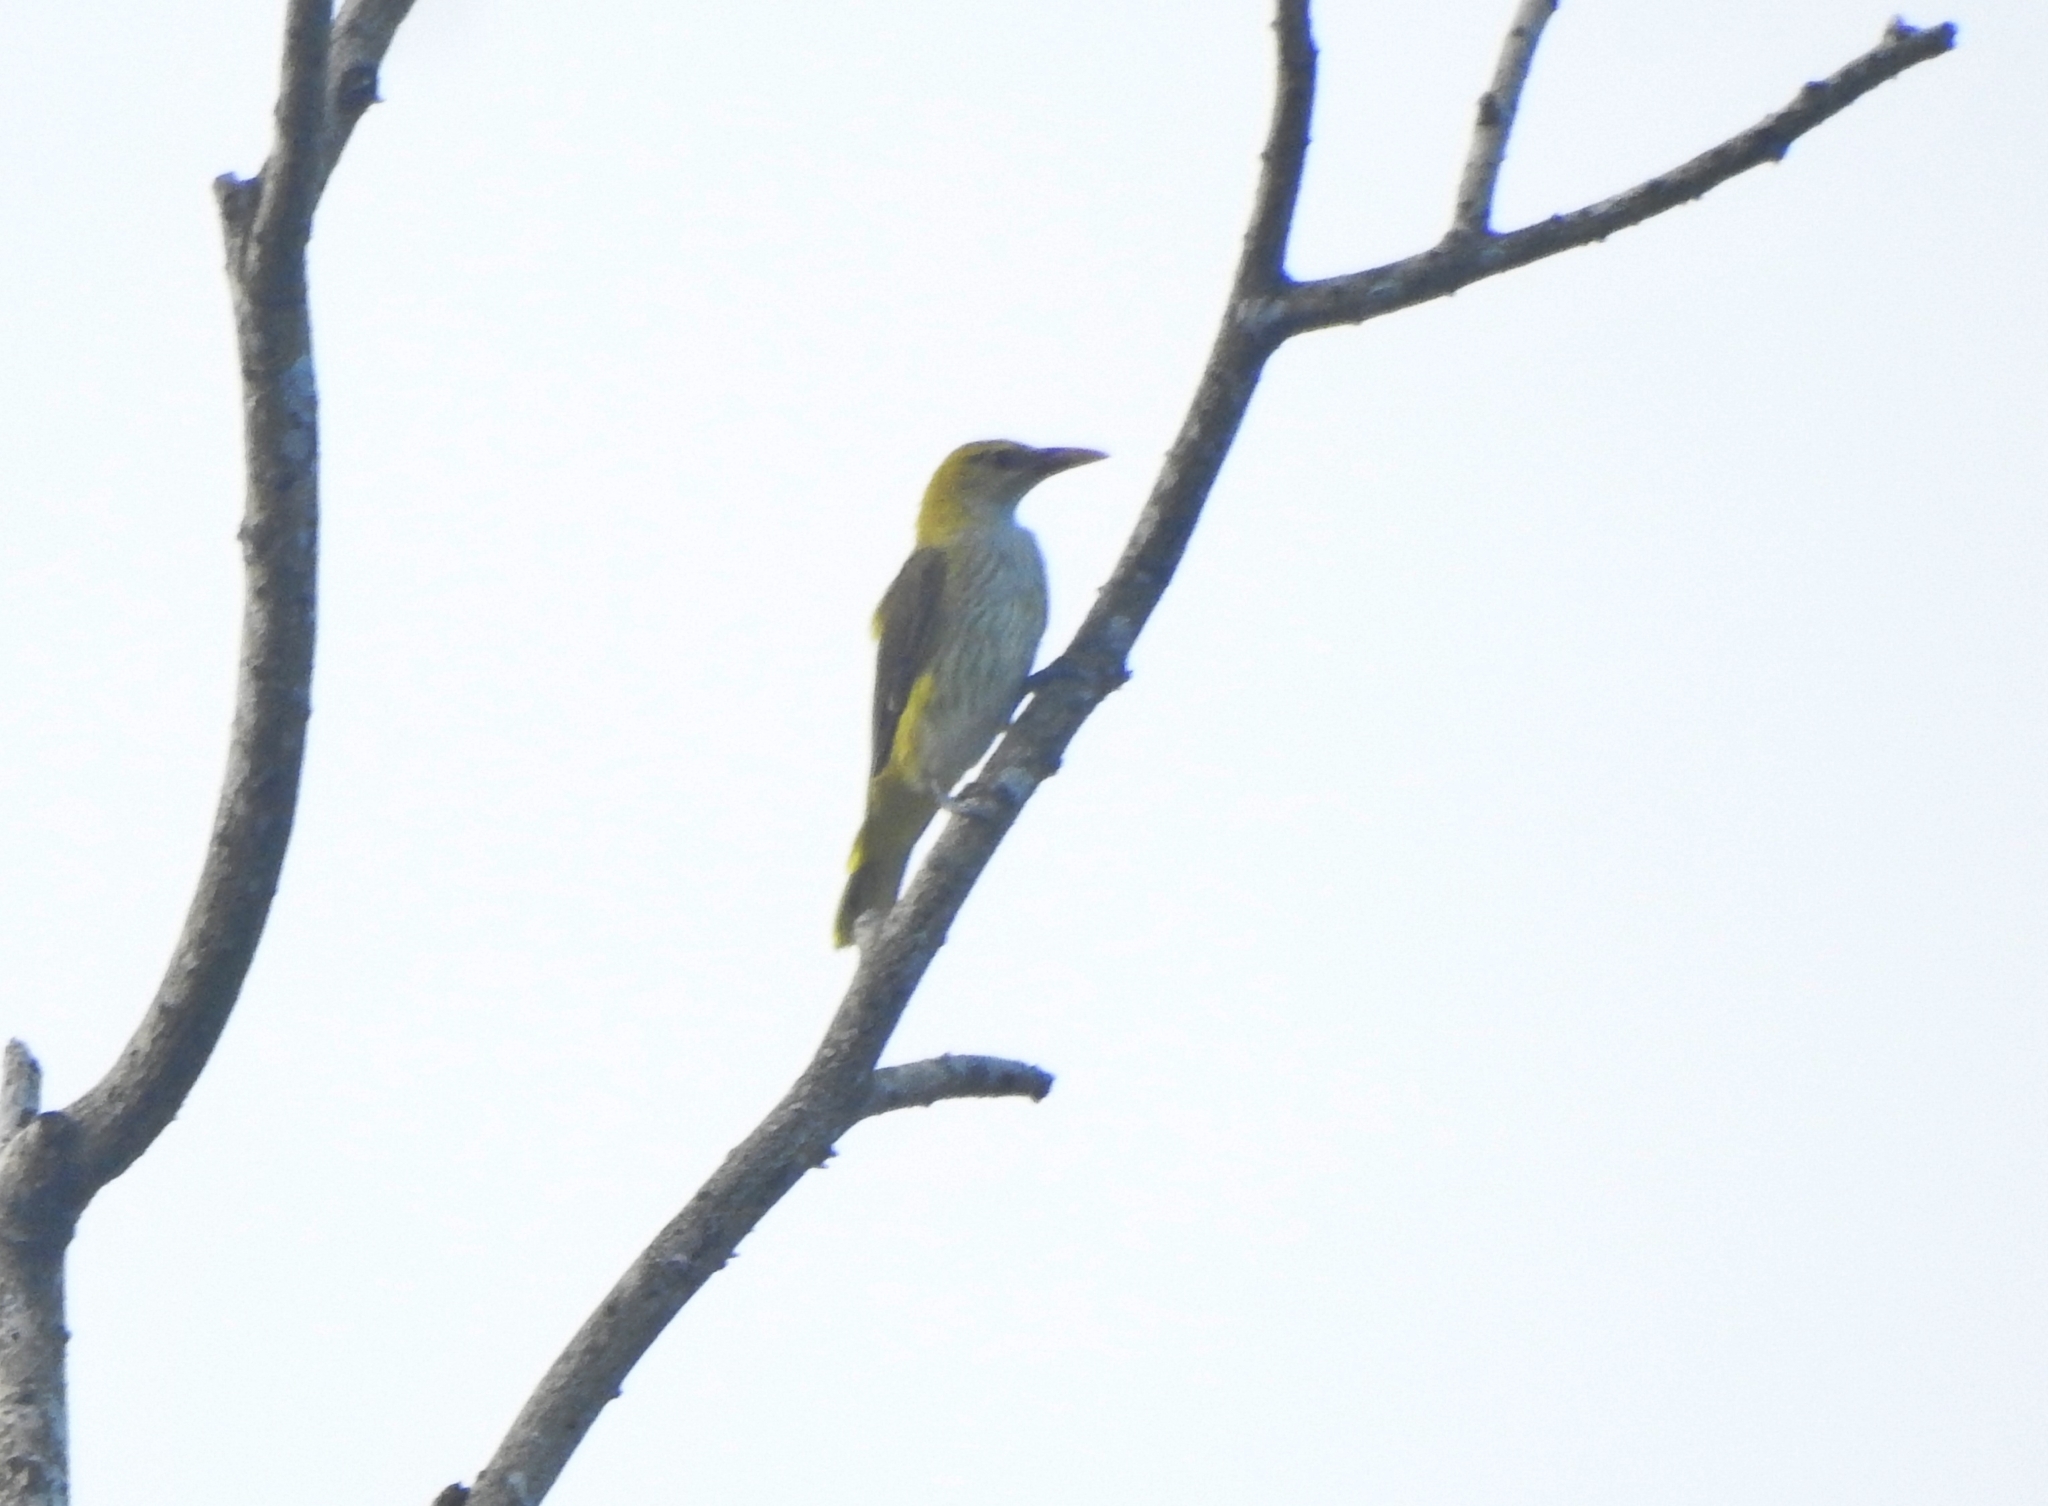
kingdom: Animalia
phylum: Chordata
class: Aves
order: Passeriformes
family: Oriolidae
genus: Oriolus
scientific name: Oriolus kundoo
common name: Indian golden oriole
